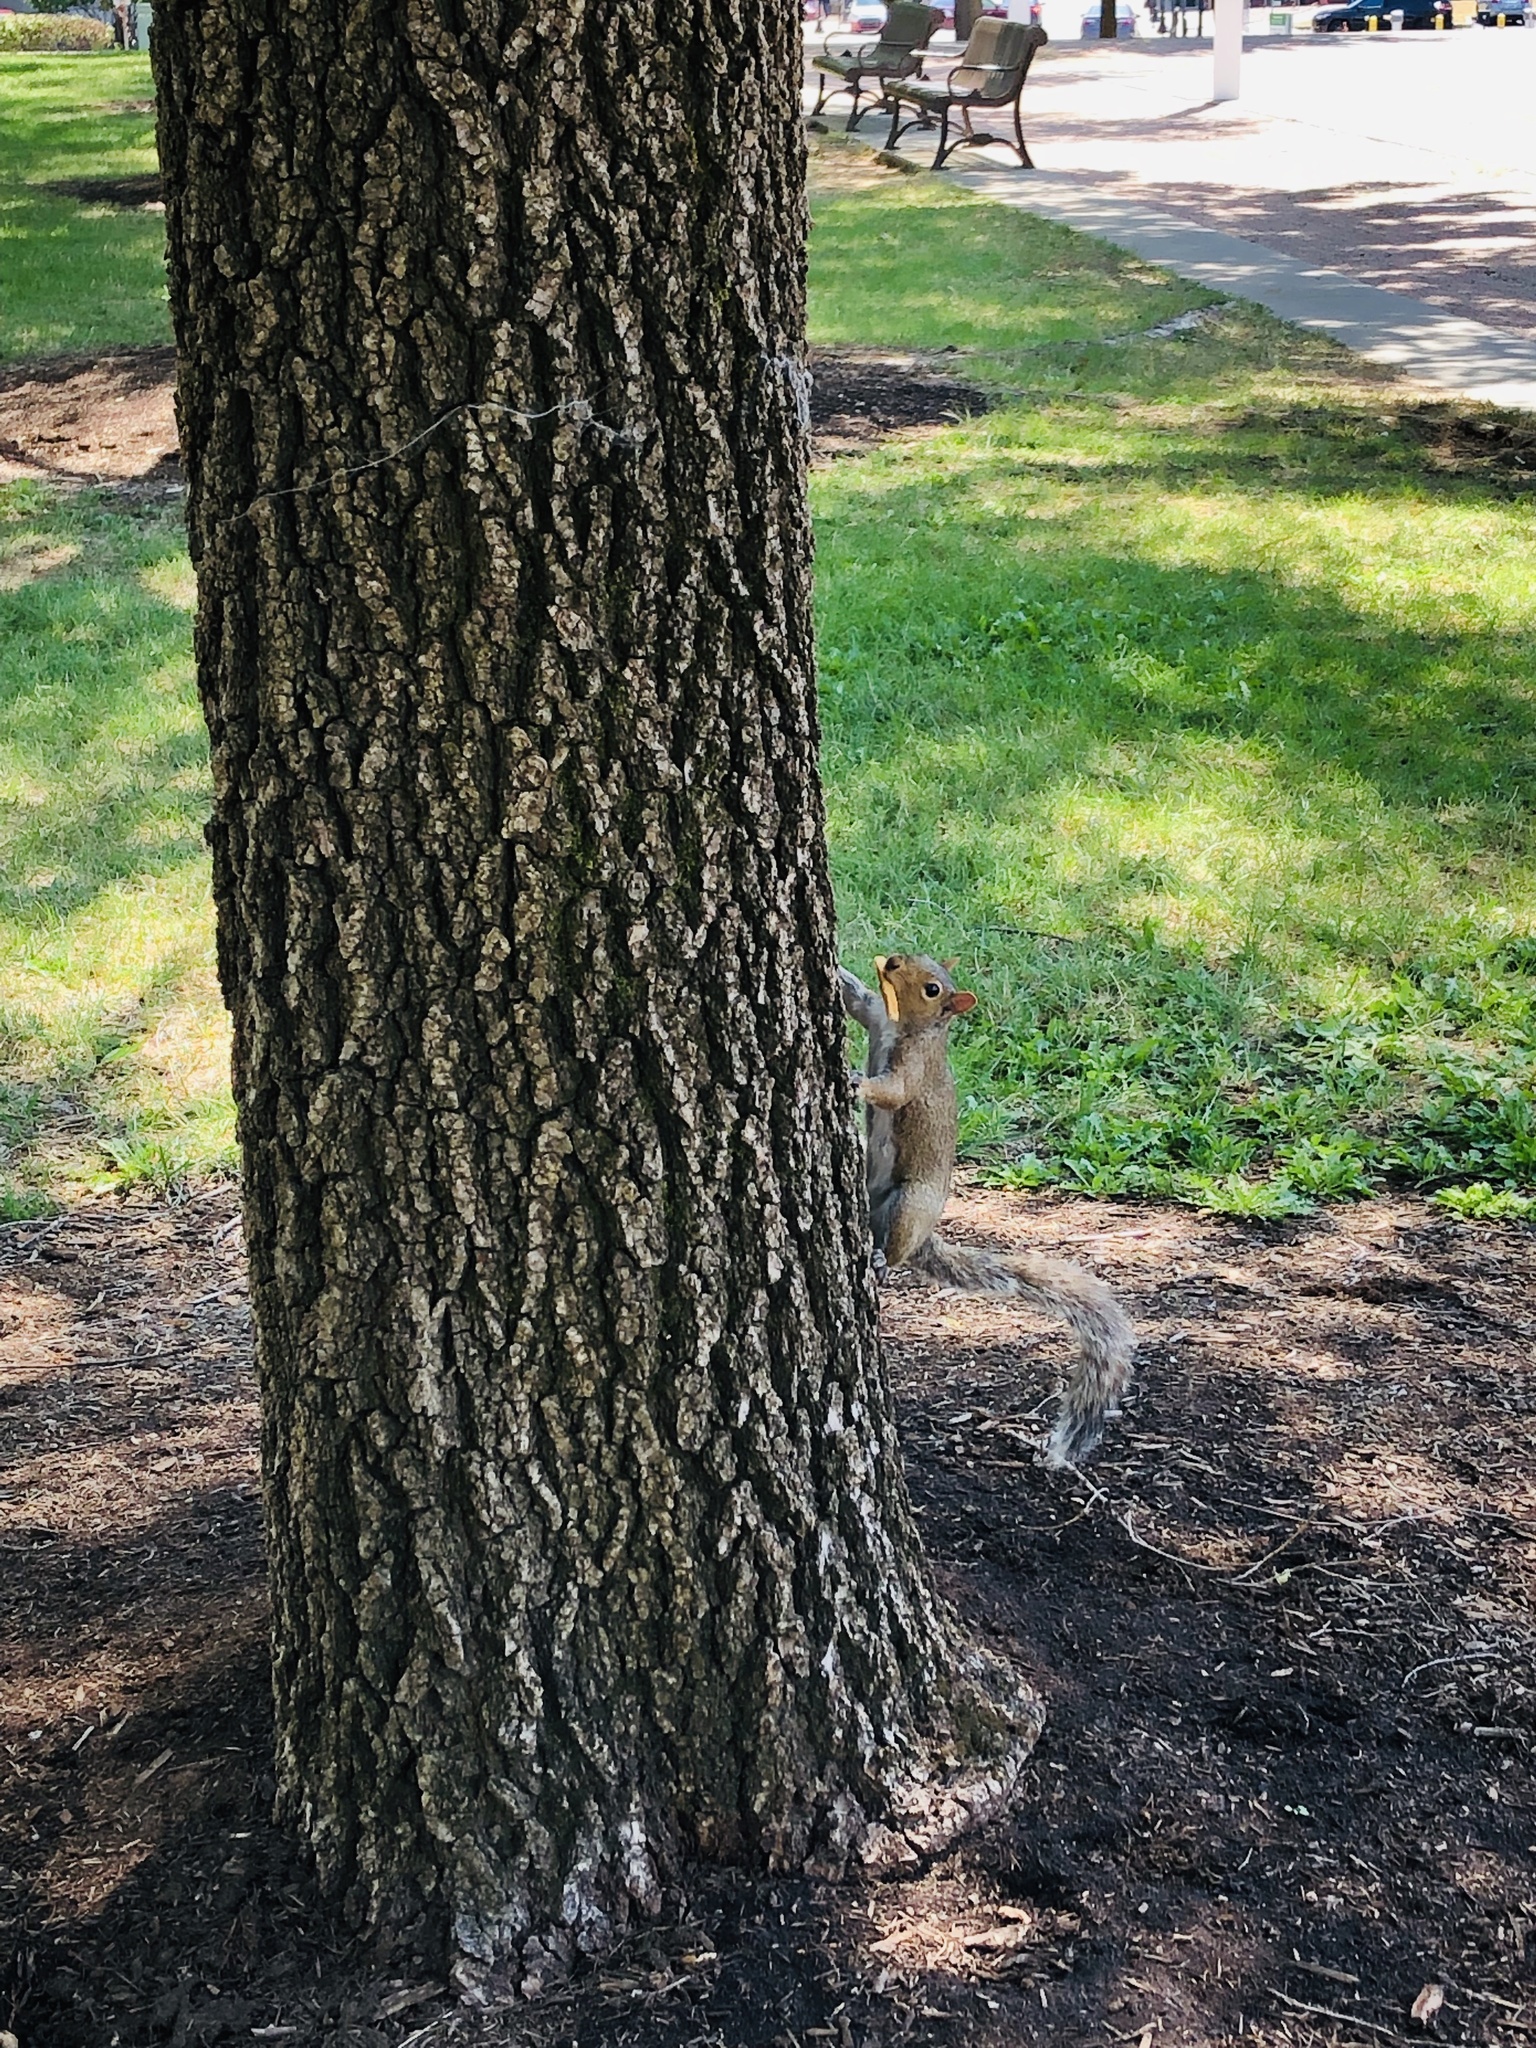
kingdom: Animalia
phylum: Chordata
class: Mammalia
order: Rodentia
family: Sciuridae
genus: Sciurus
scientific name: Sciurus carolinensis
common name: Eastern gray squirrel
